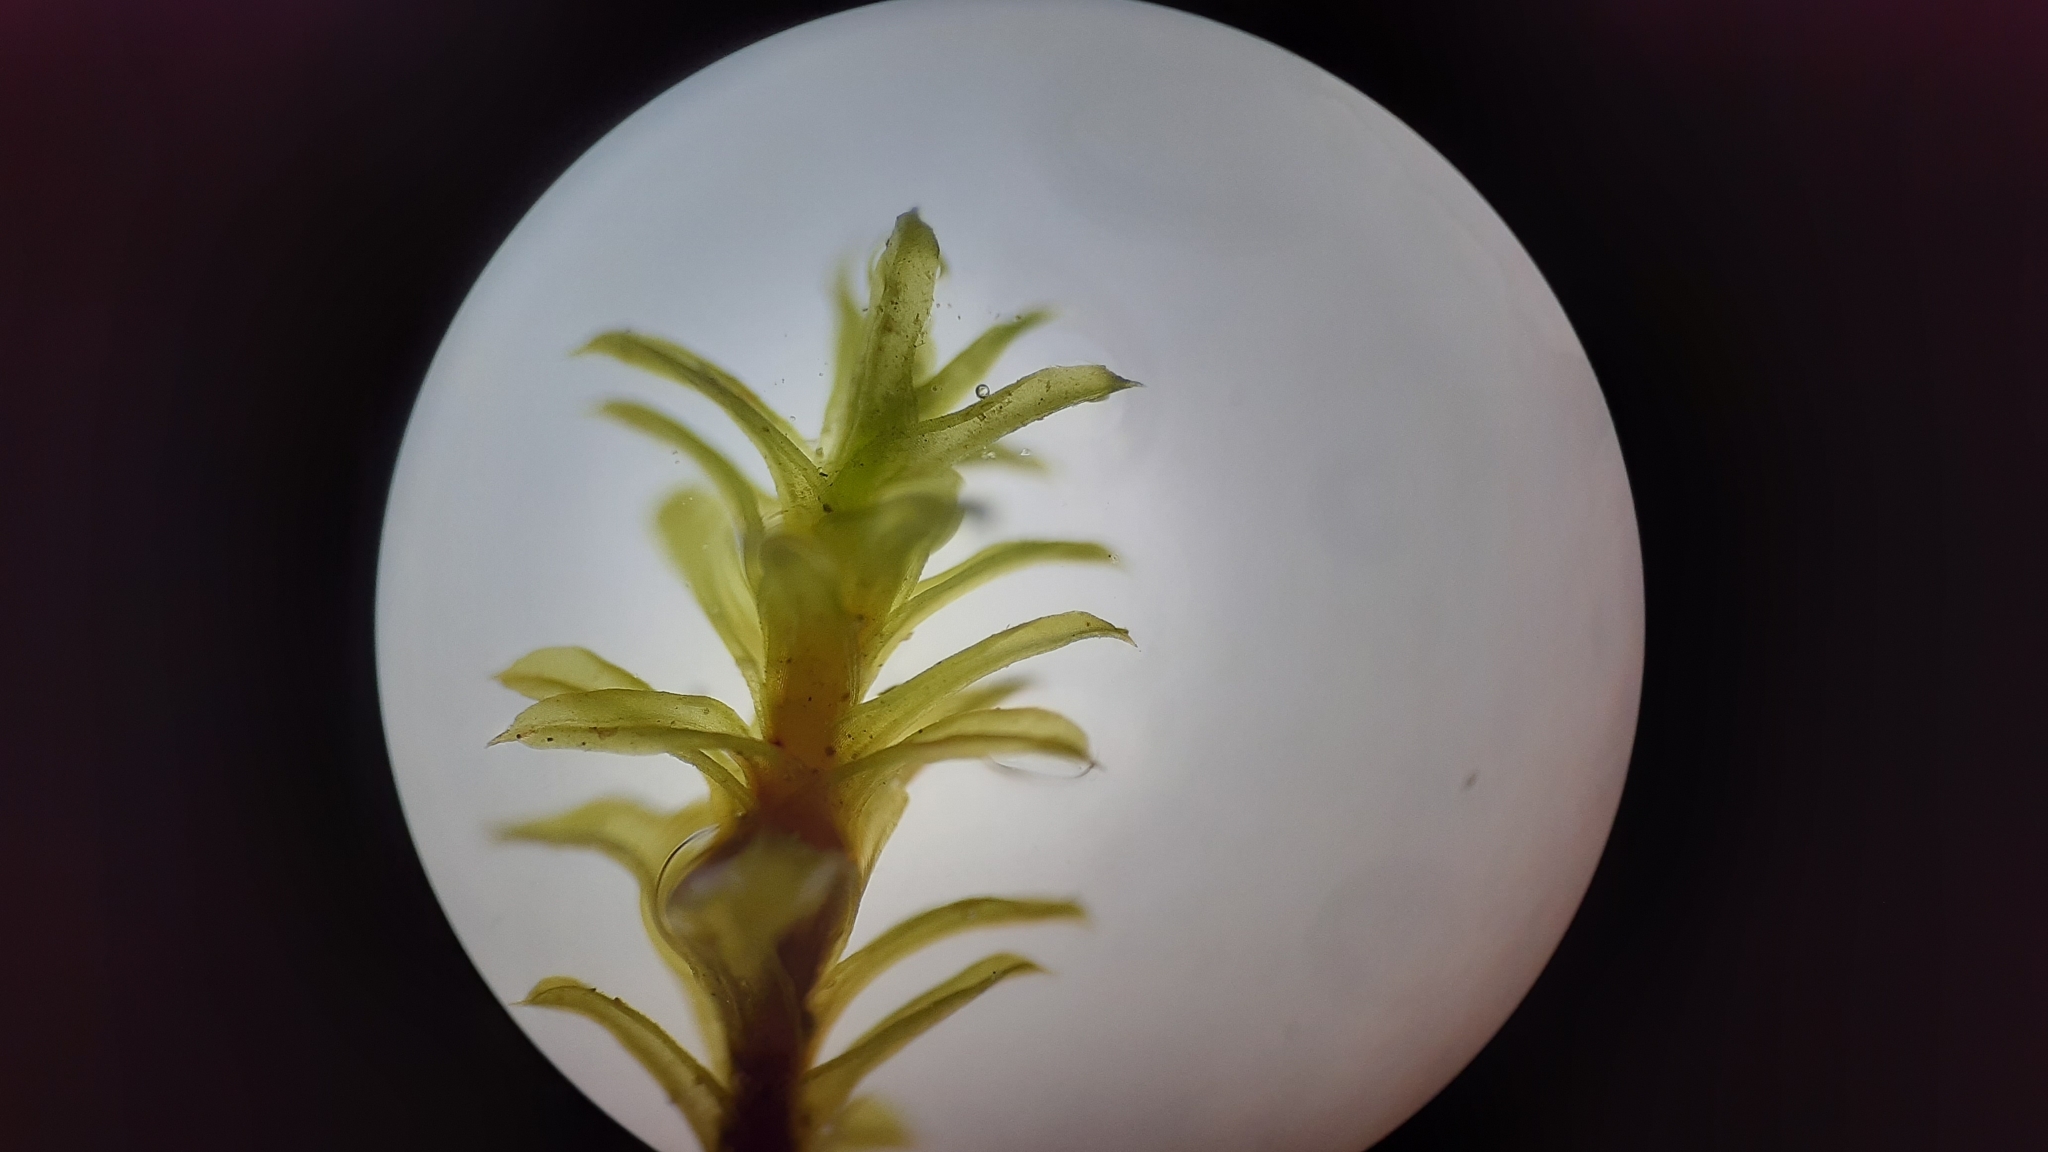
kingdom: Plantae
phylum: Bryophyta
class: Bryopsida
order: Pottiales
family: Pottiaceae
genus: Barbula
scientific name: Barbula unguiculata
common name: Prickly beard moss
